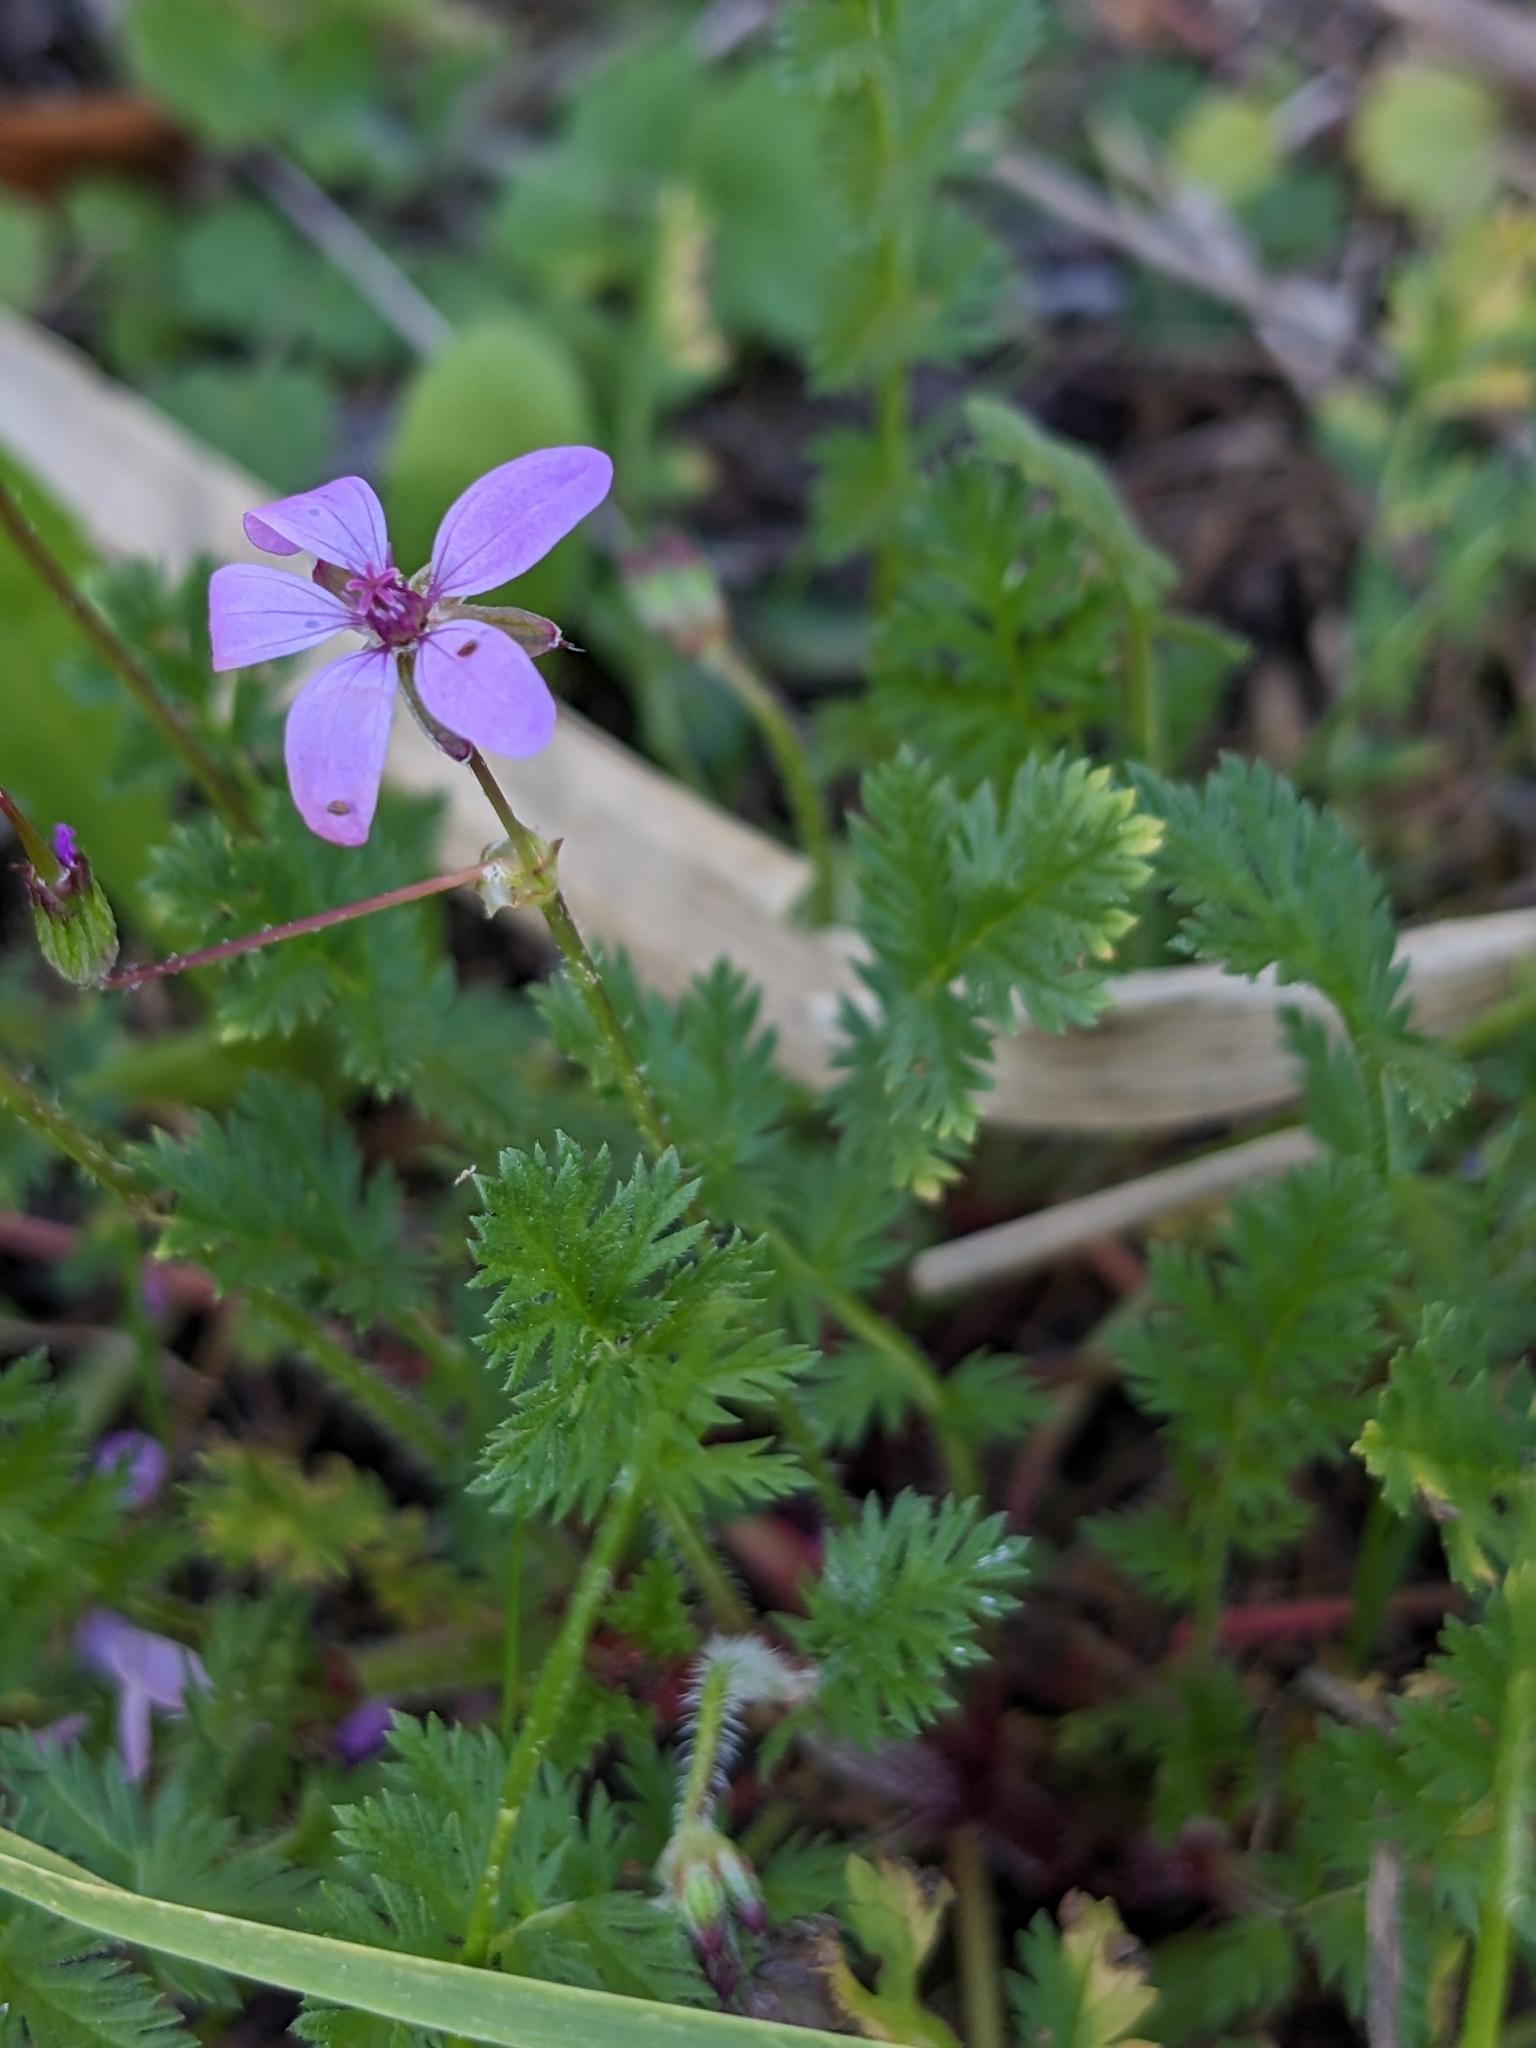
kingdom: Plantae
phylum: Tracheophyta
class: Magnoliopsida
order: Geraniales
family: Geraniaceae
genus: Erodium
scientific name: Erodium cicutarium
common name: Common stork's-bill
